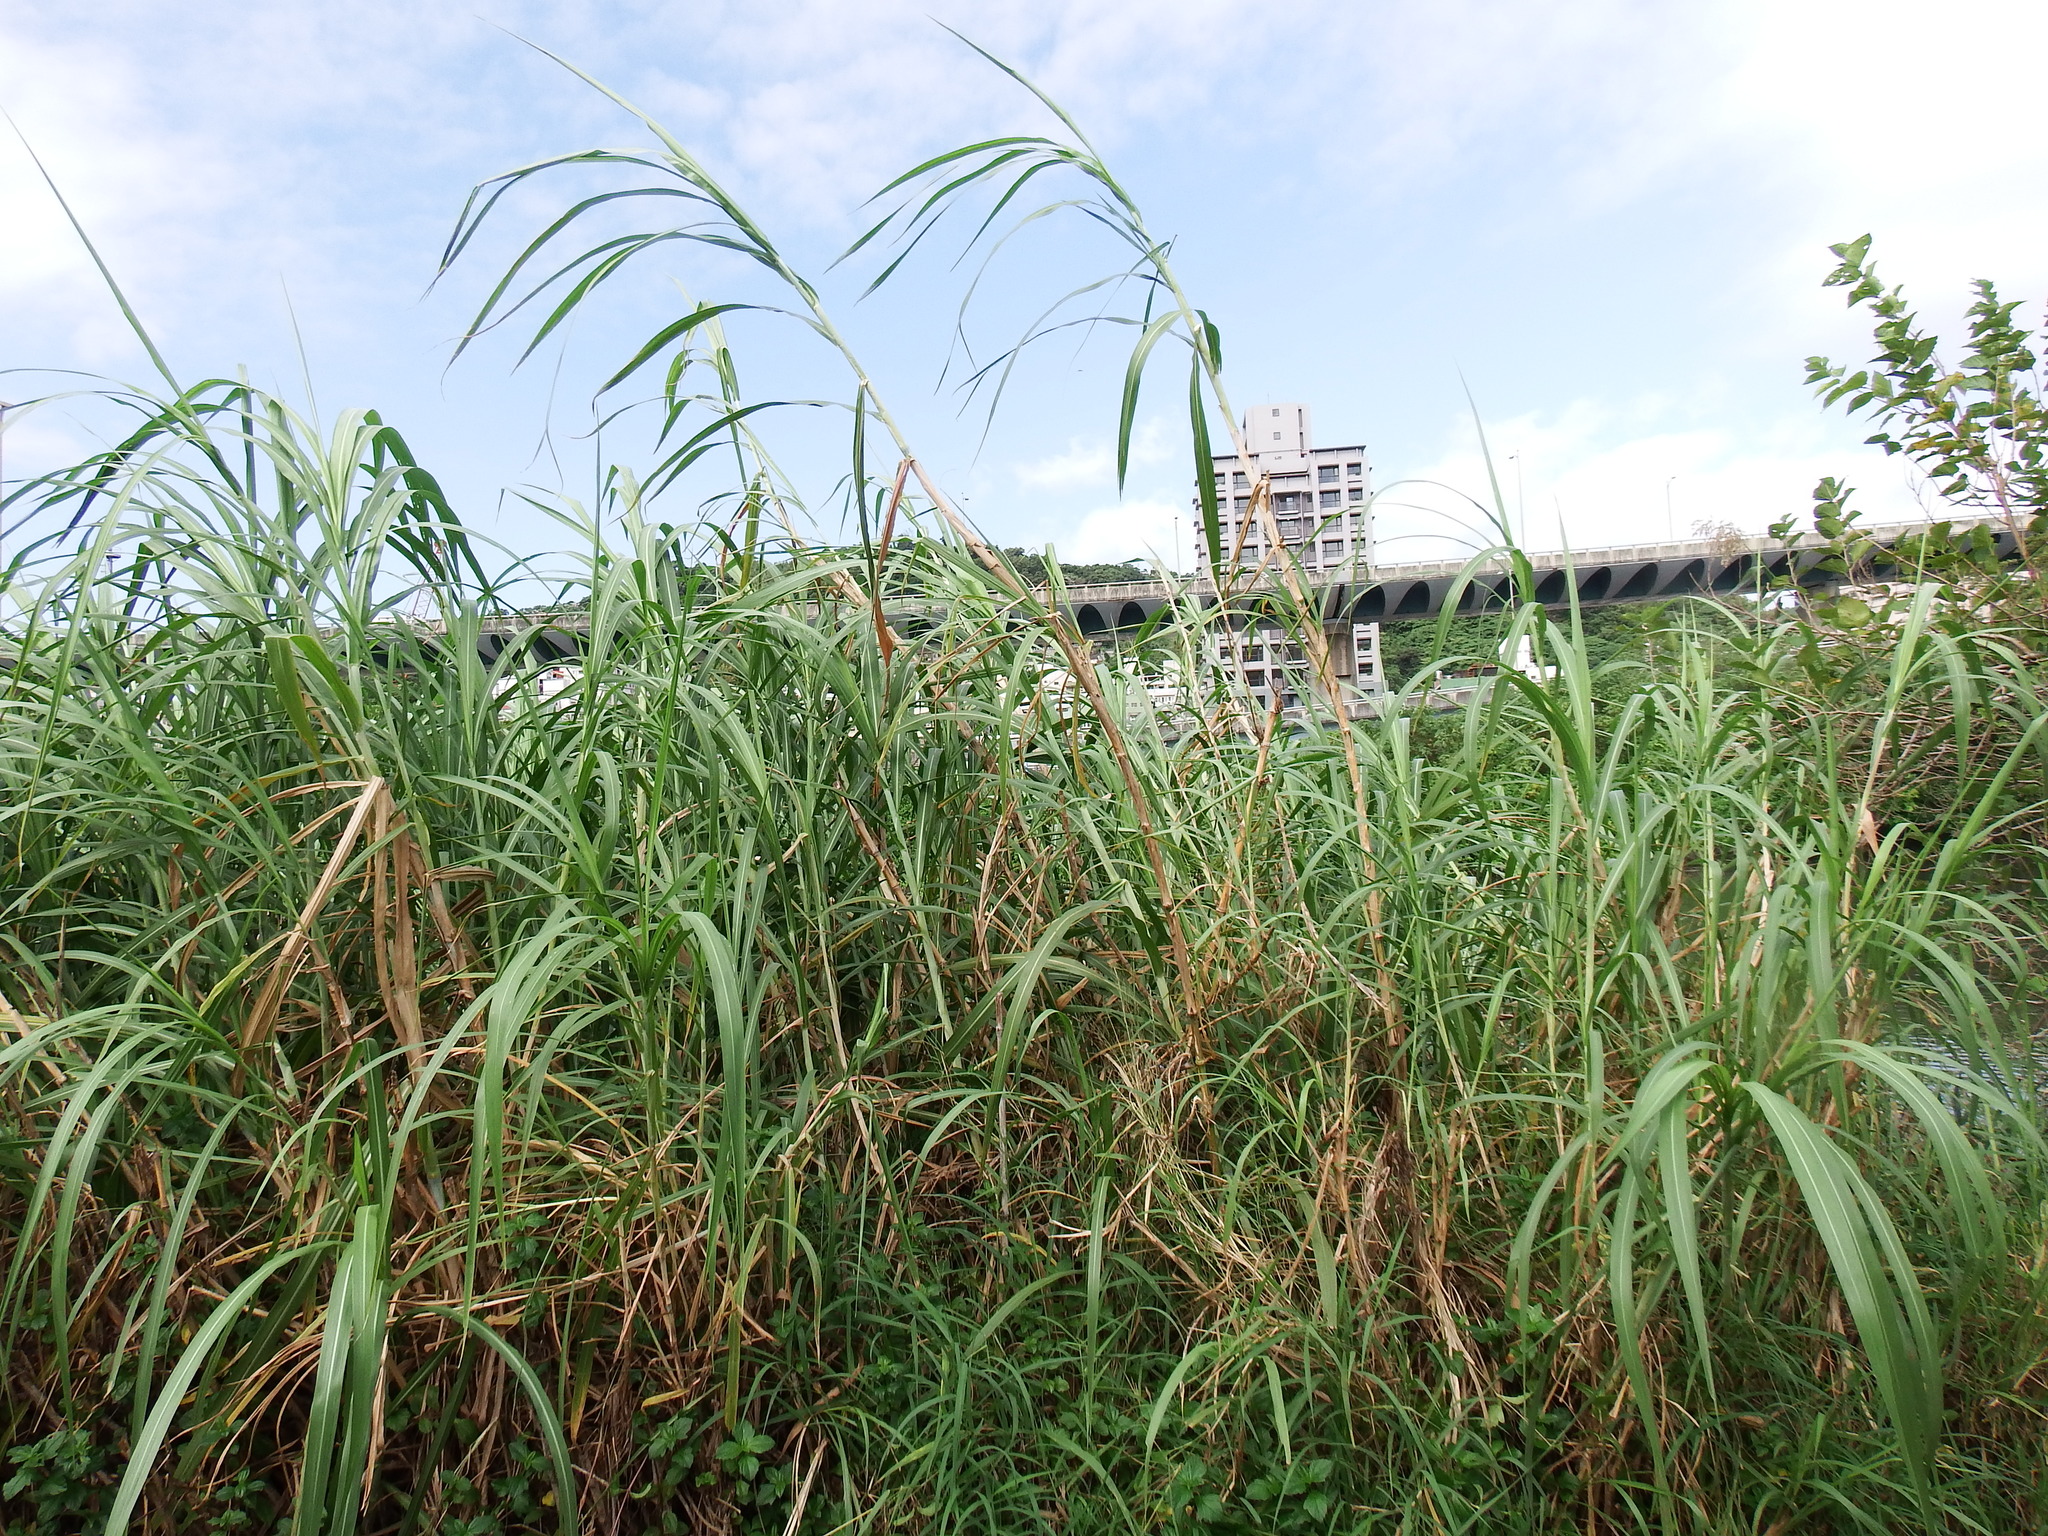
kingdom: Plantae
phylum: Tracheophyta
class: Liliopsida
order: Poales
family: Poaceae
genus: Cenchrus
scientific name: Cenchrus purpureus
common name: Elephant grass
